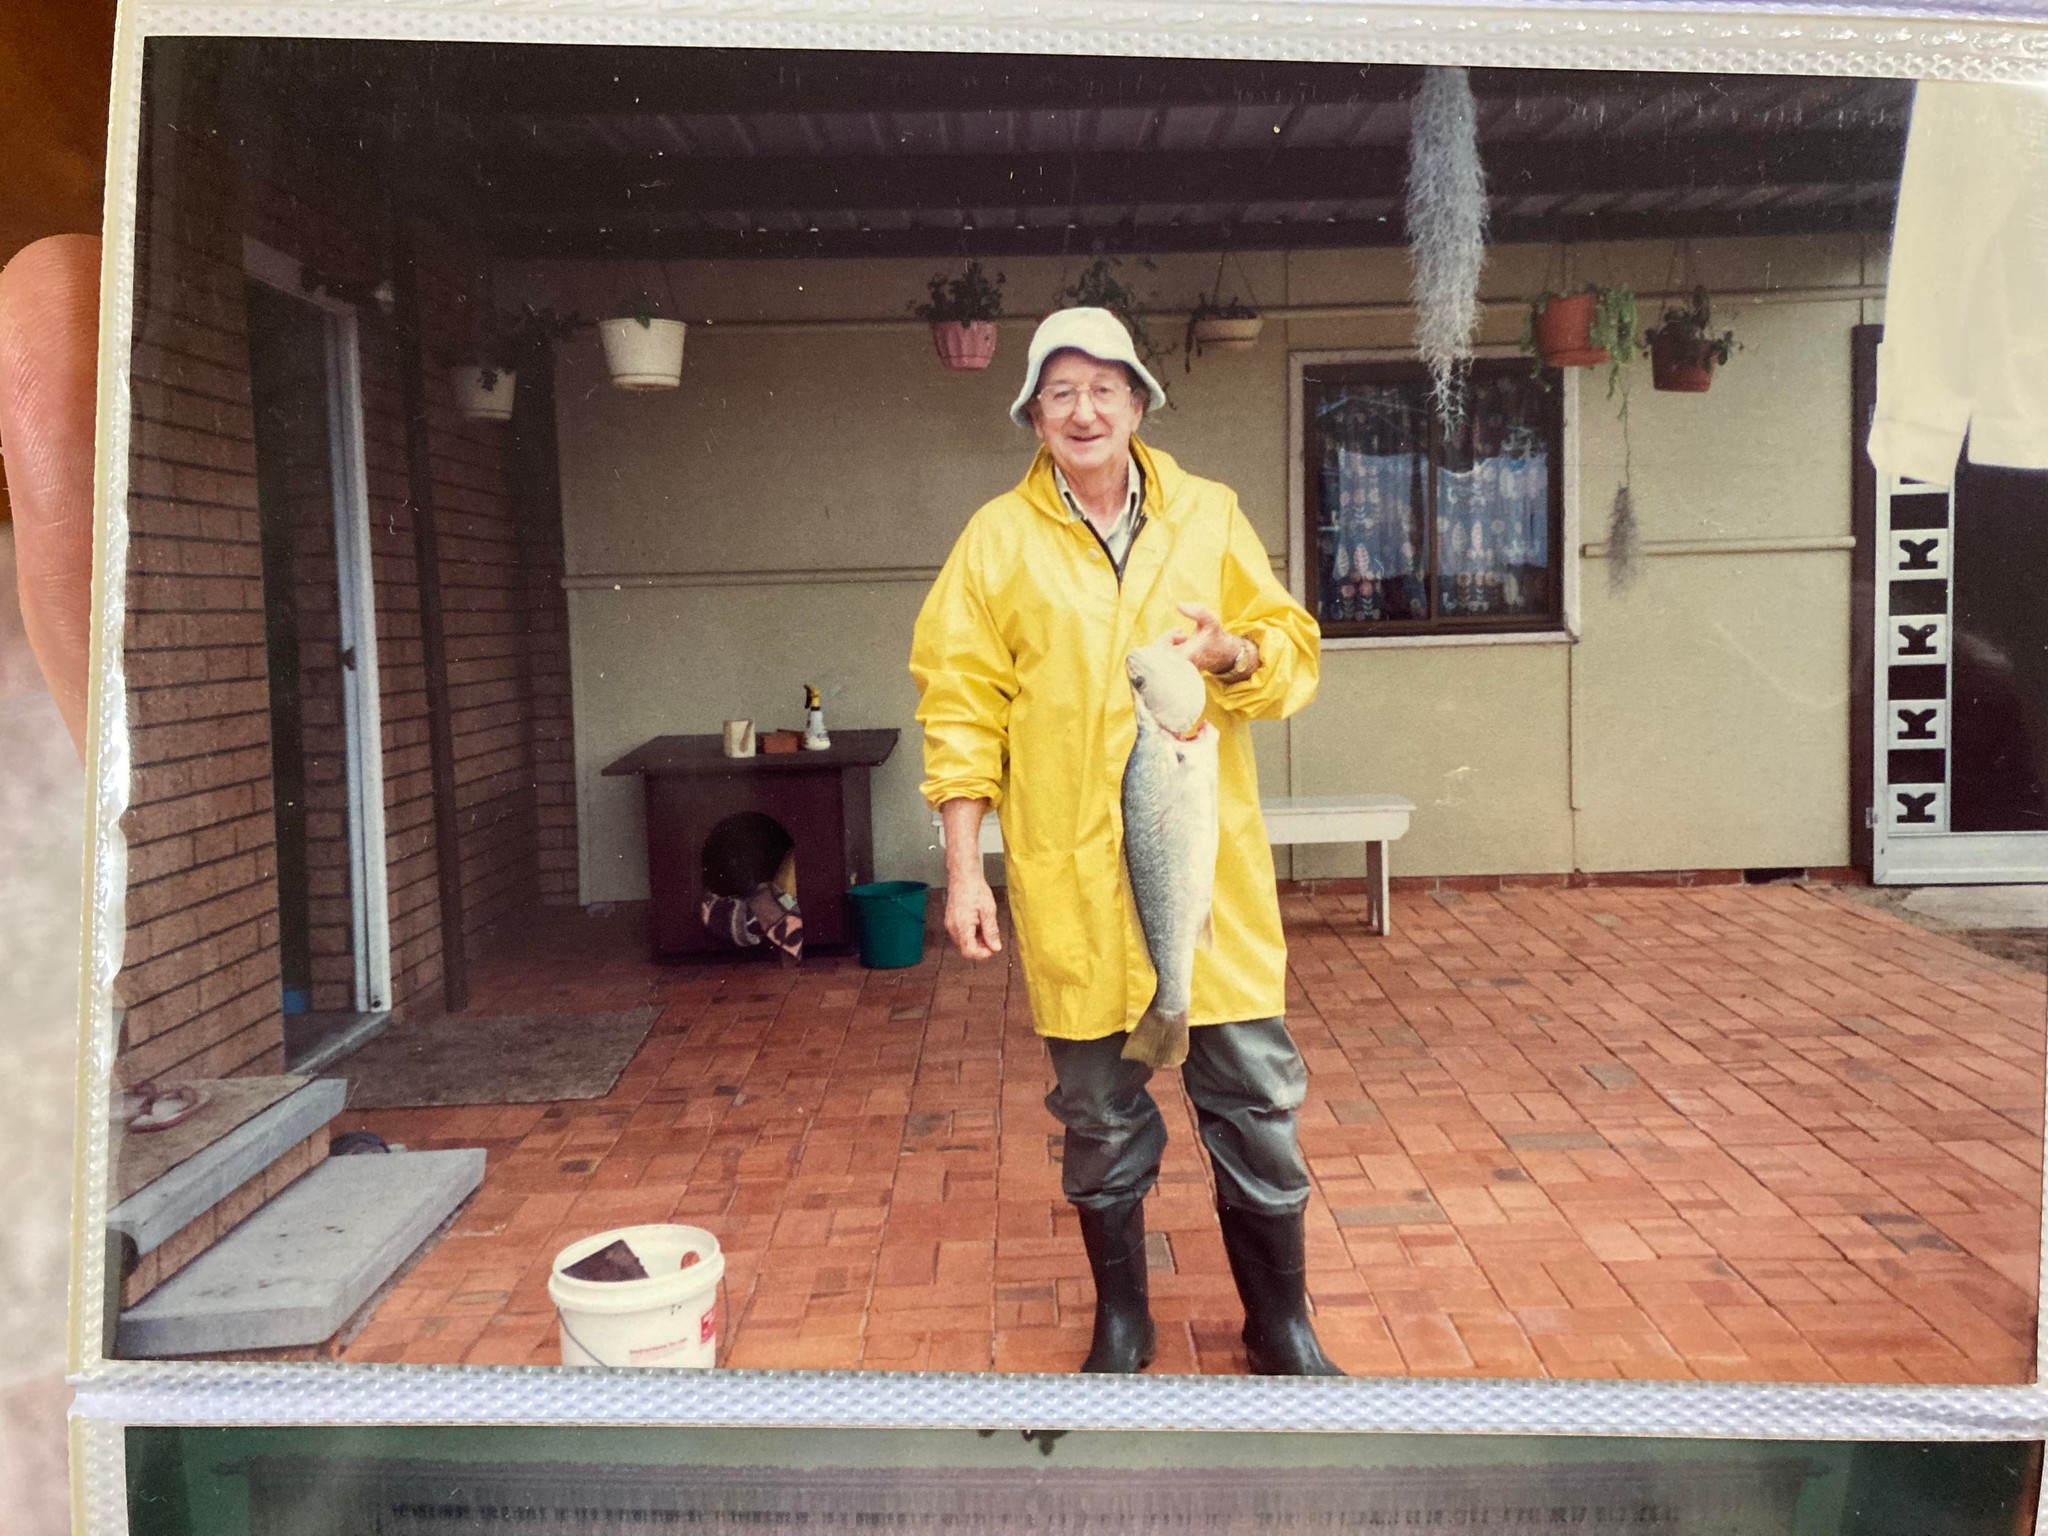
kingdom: Animalia
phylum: Chordata
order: Perciformes
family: Sciaenidae
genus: Argyrosomus
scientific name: Argyrosomus japonicus
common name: Japanese meagre
